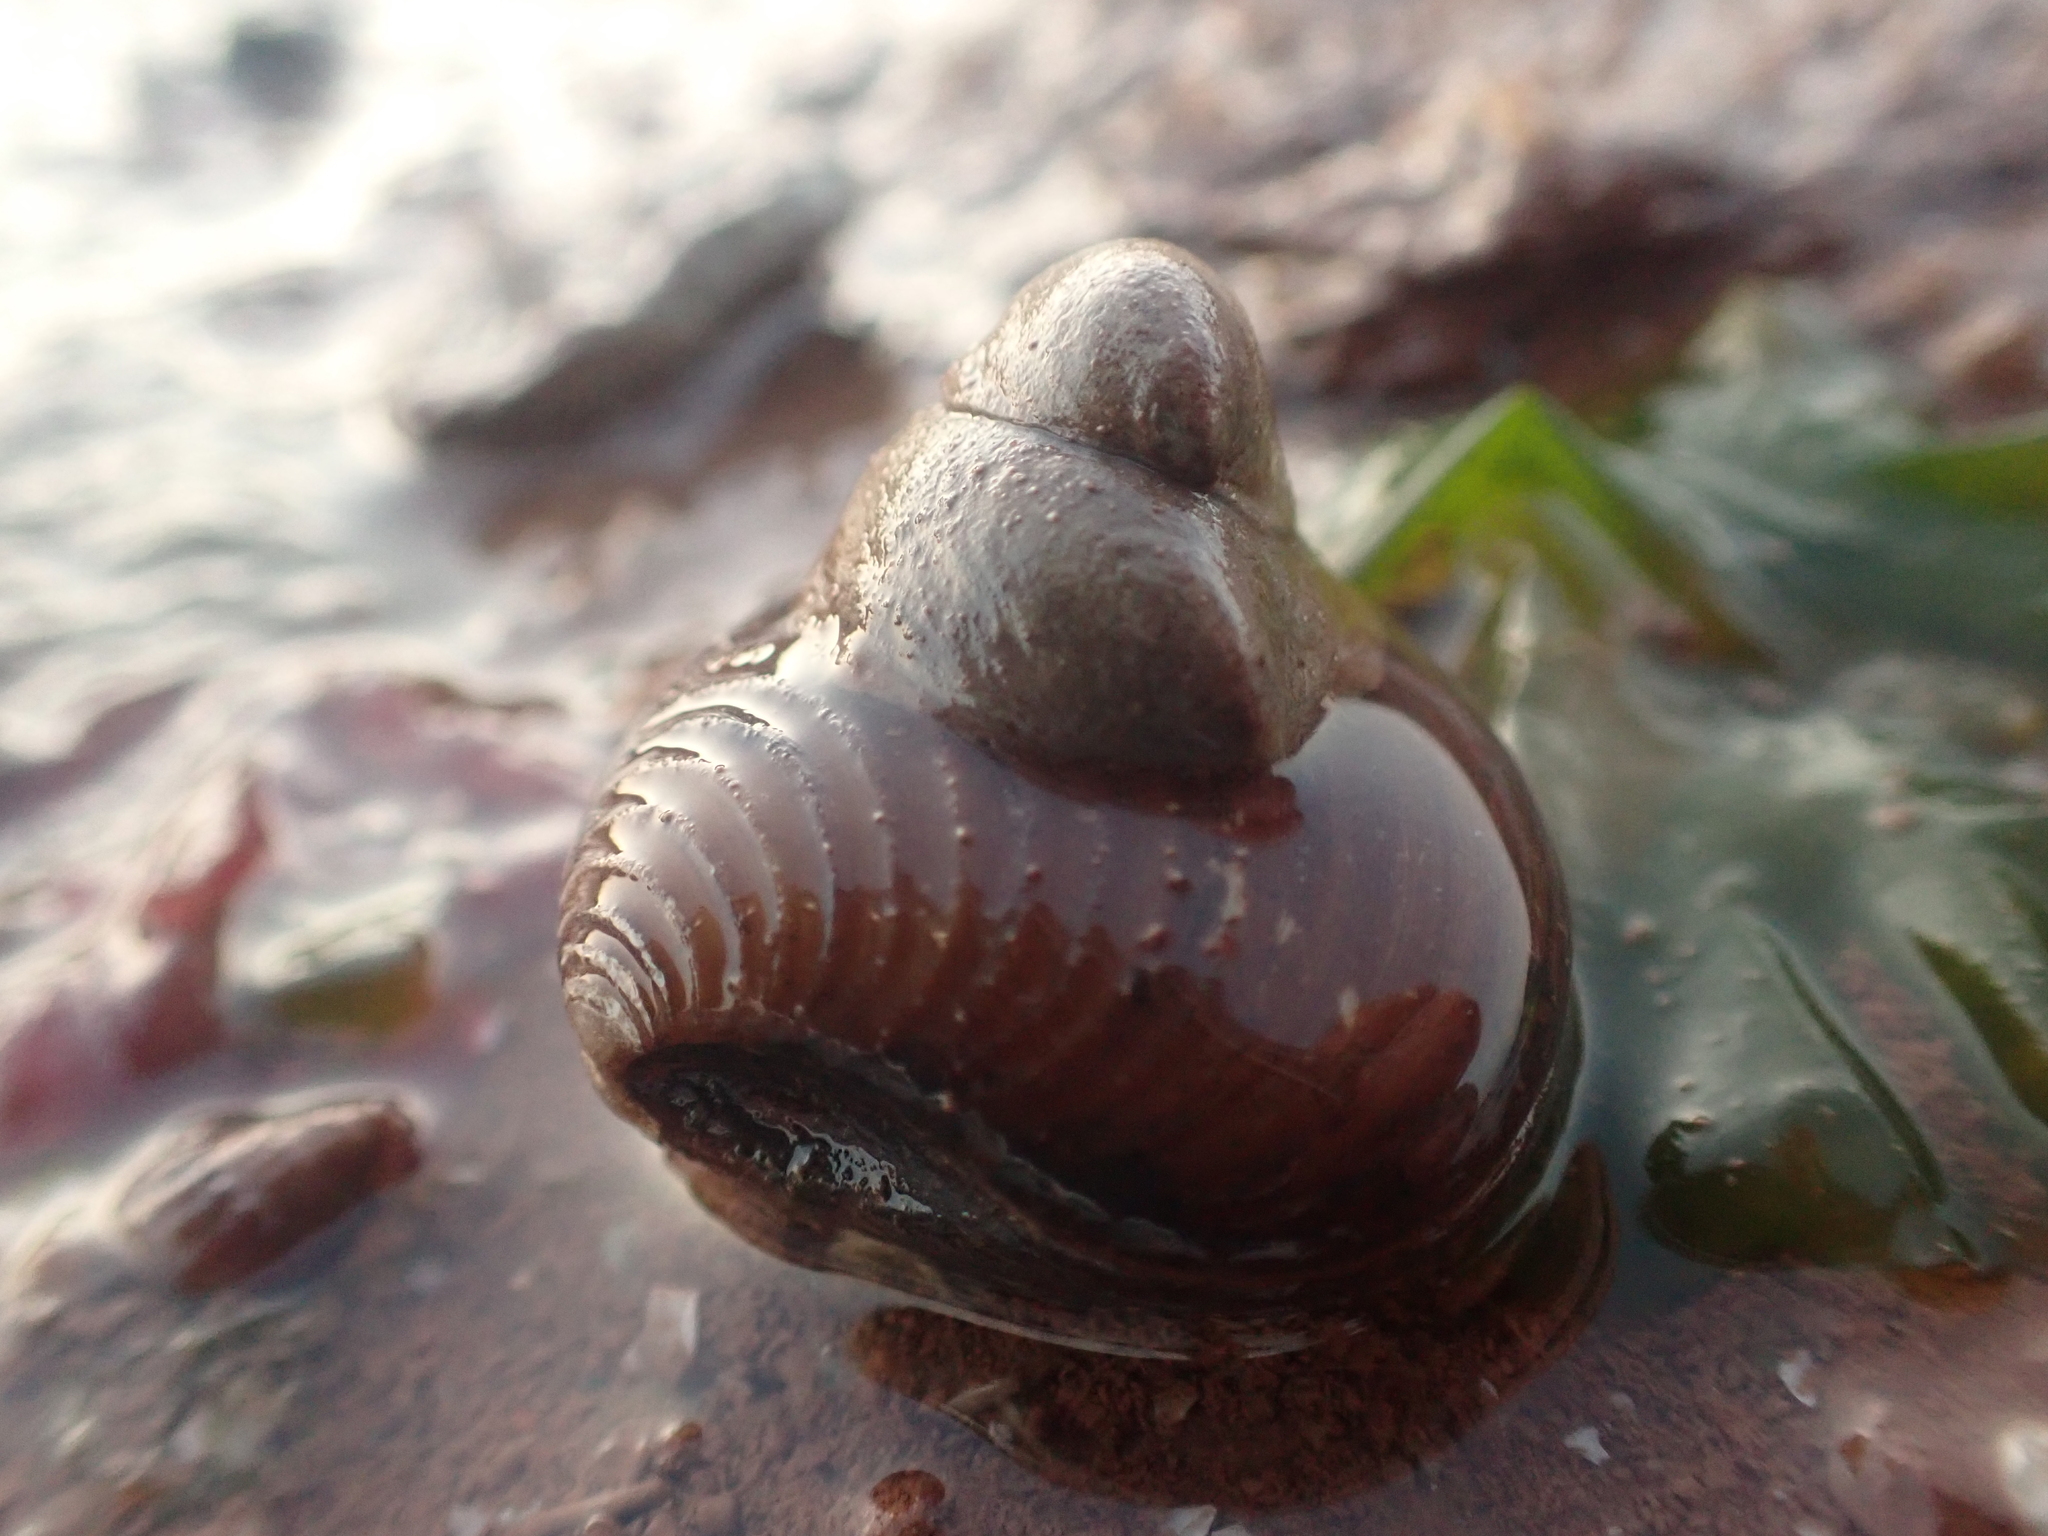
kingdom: Animalia
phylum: Mollusca
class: Gastropoda
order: Littorinimorpha
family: Calyptraeidae
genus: Crepidula
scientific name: Crepidula fornicata
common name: Slipper limpet
